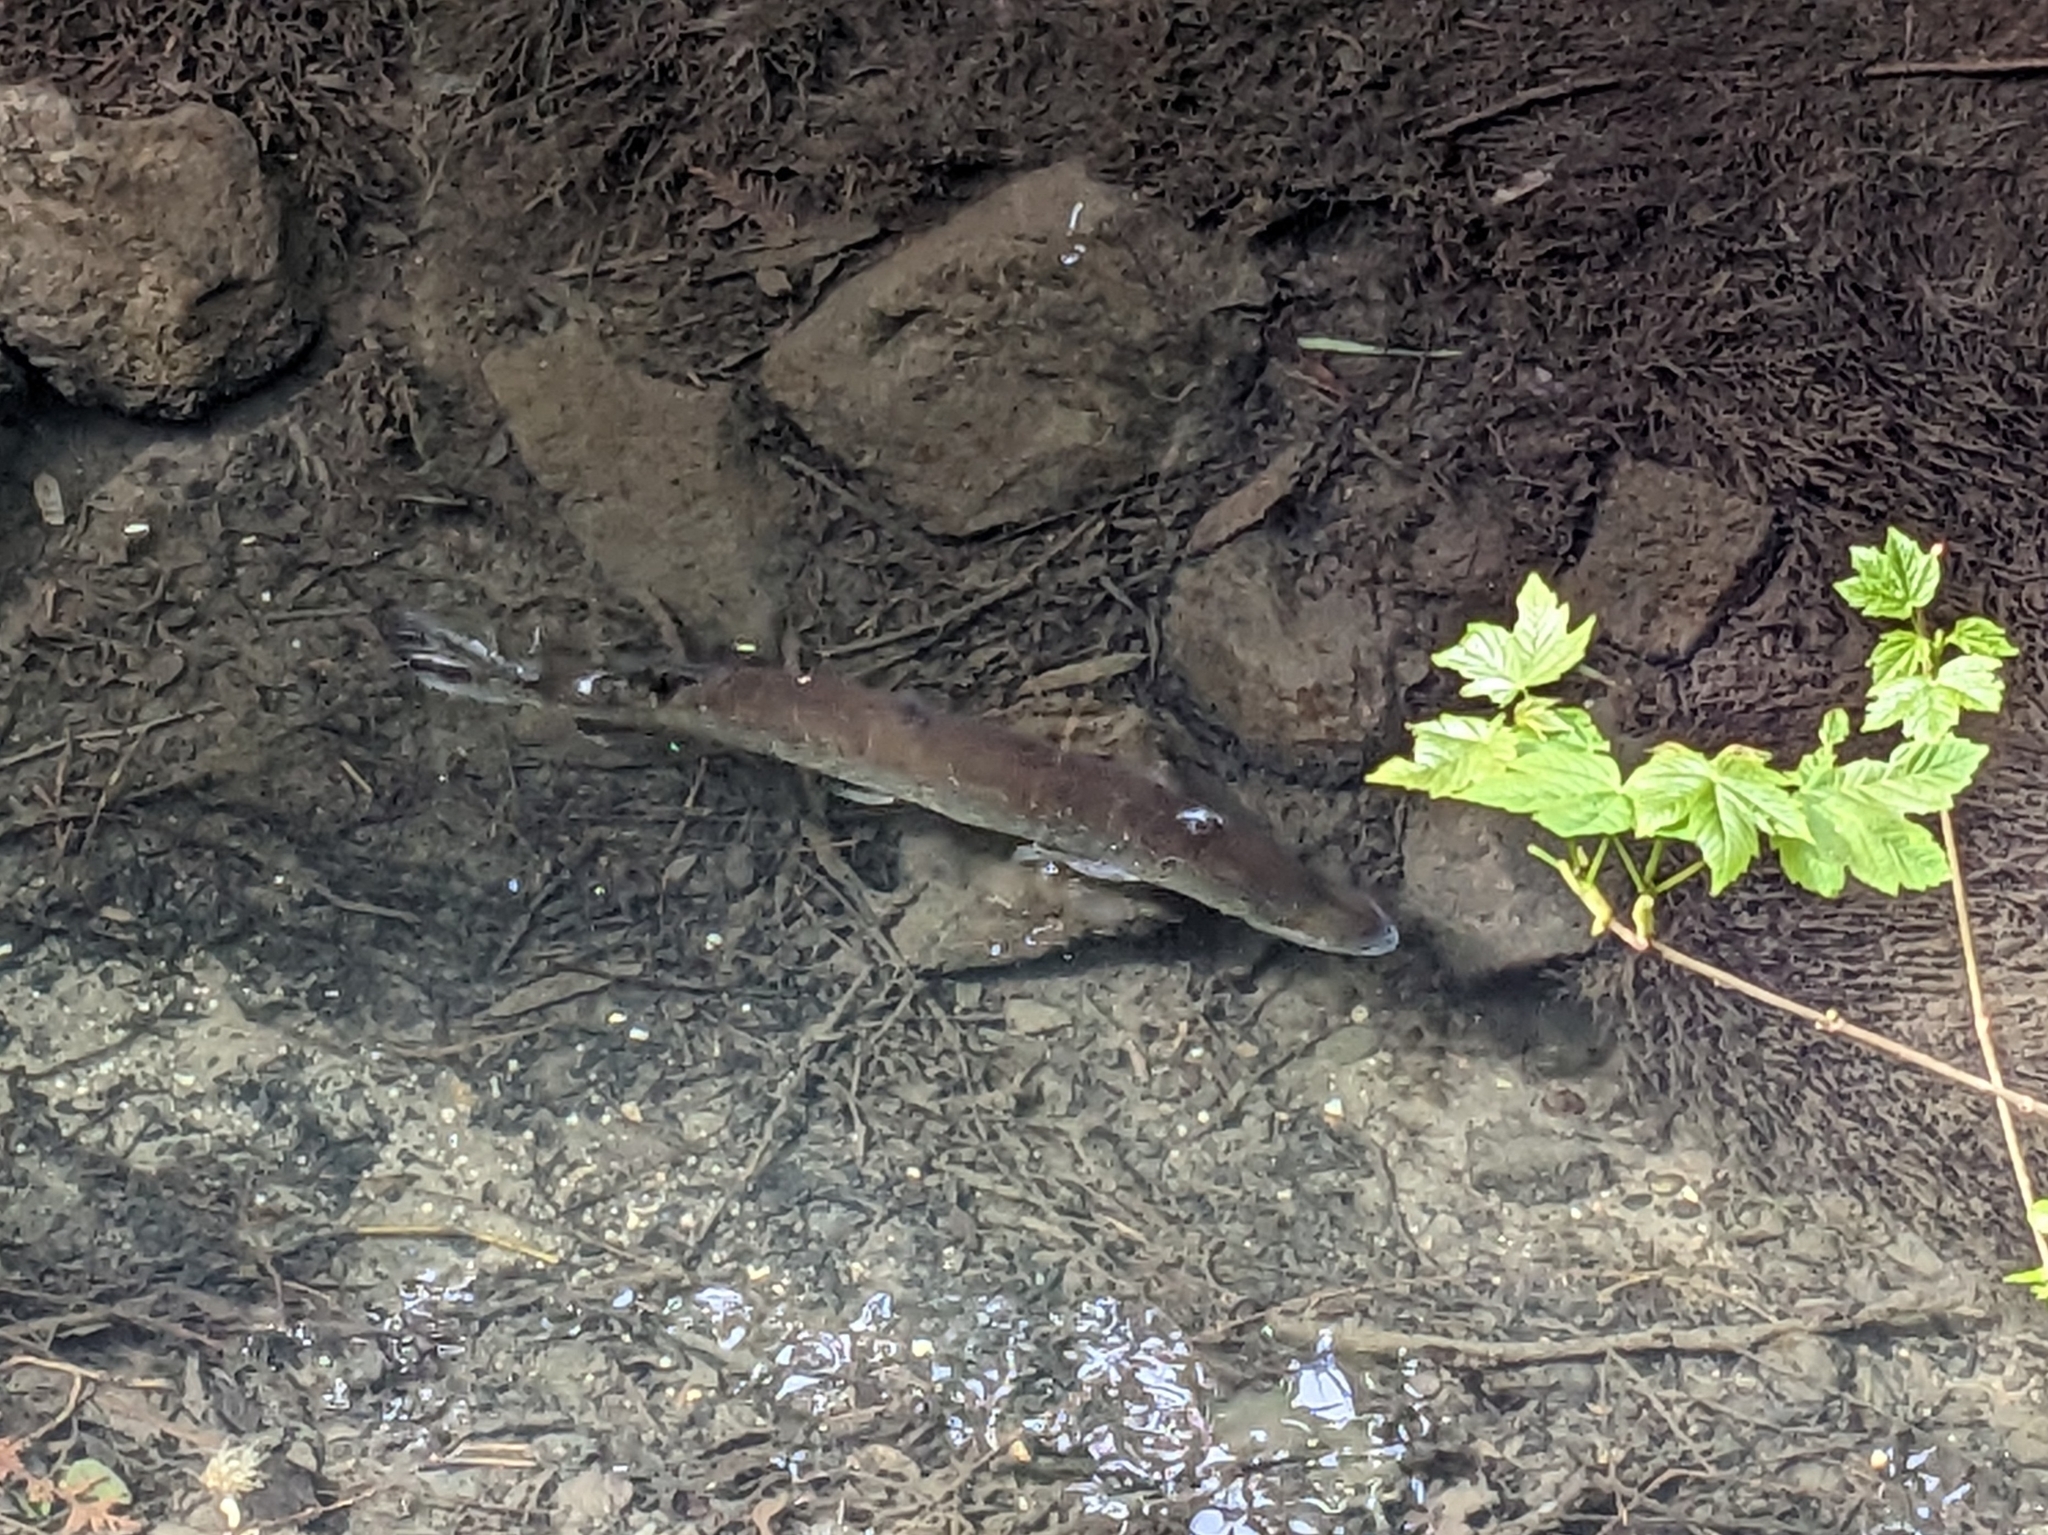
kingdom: Animalia
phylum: Chordata
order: Esociformes
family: Esocidae
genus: Esox
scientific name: Esox lucius
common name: Northern pike
